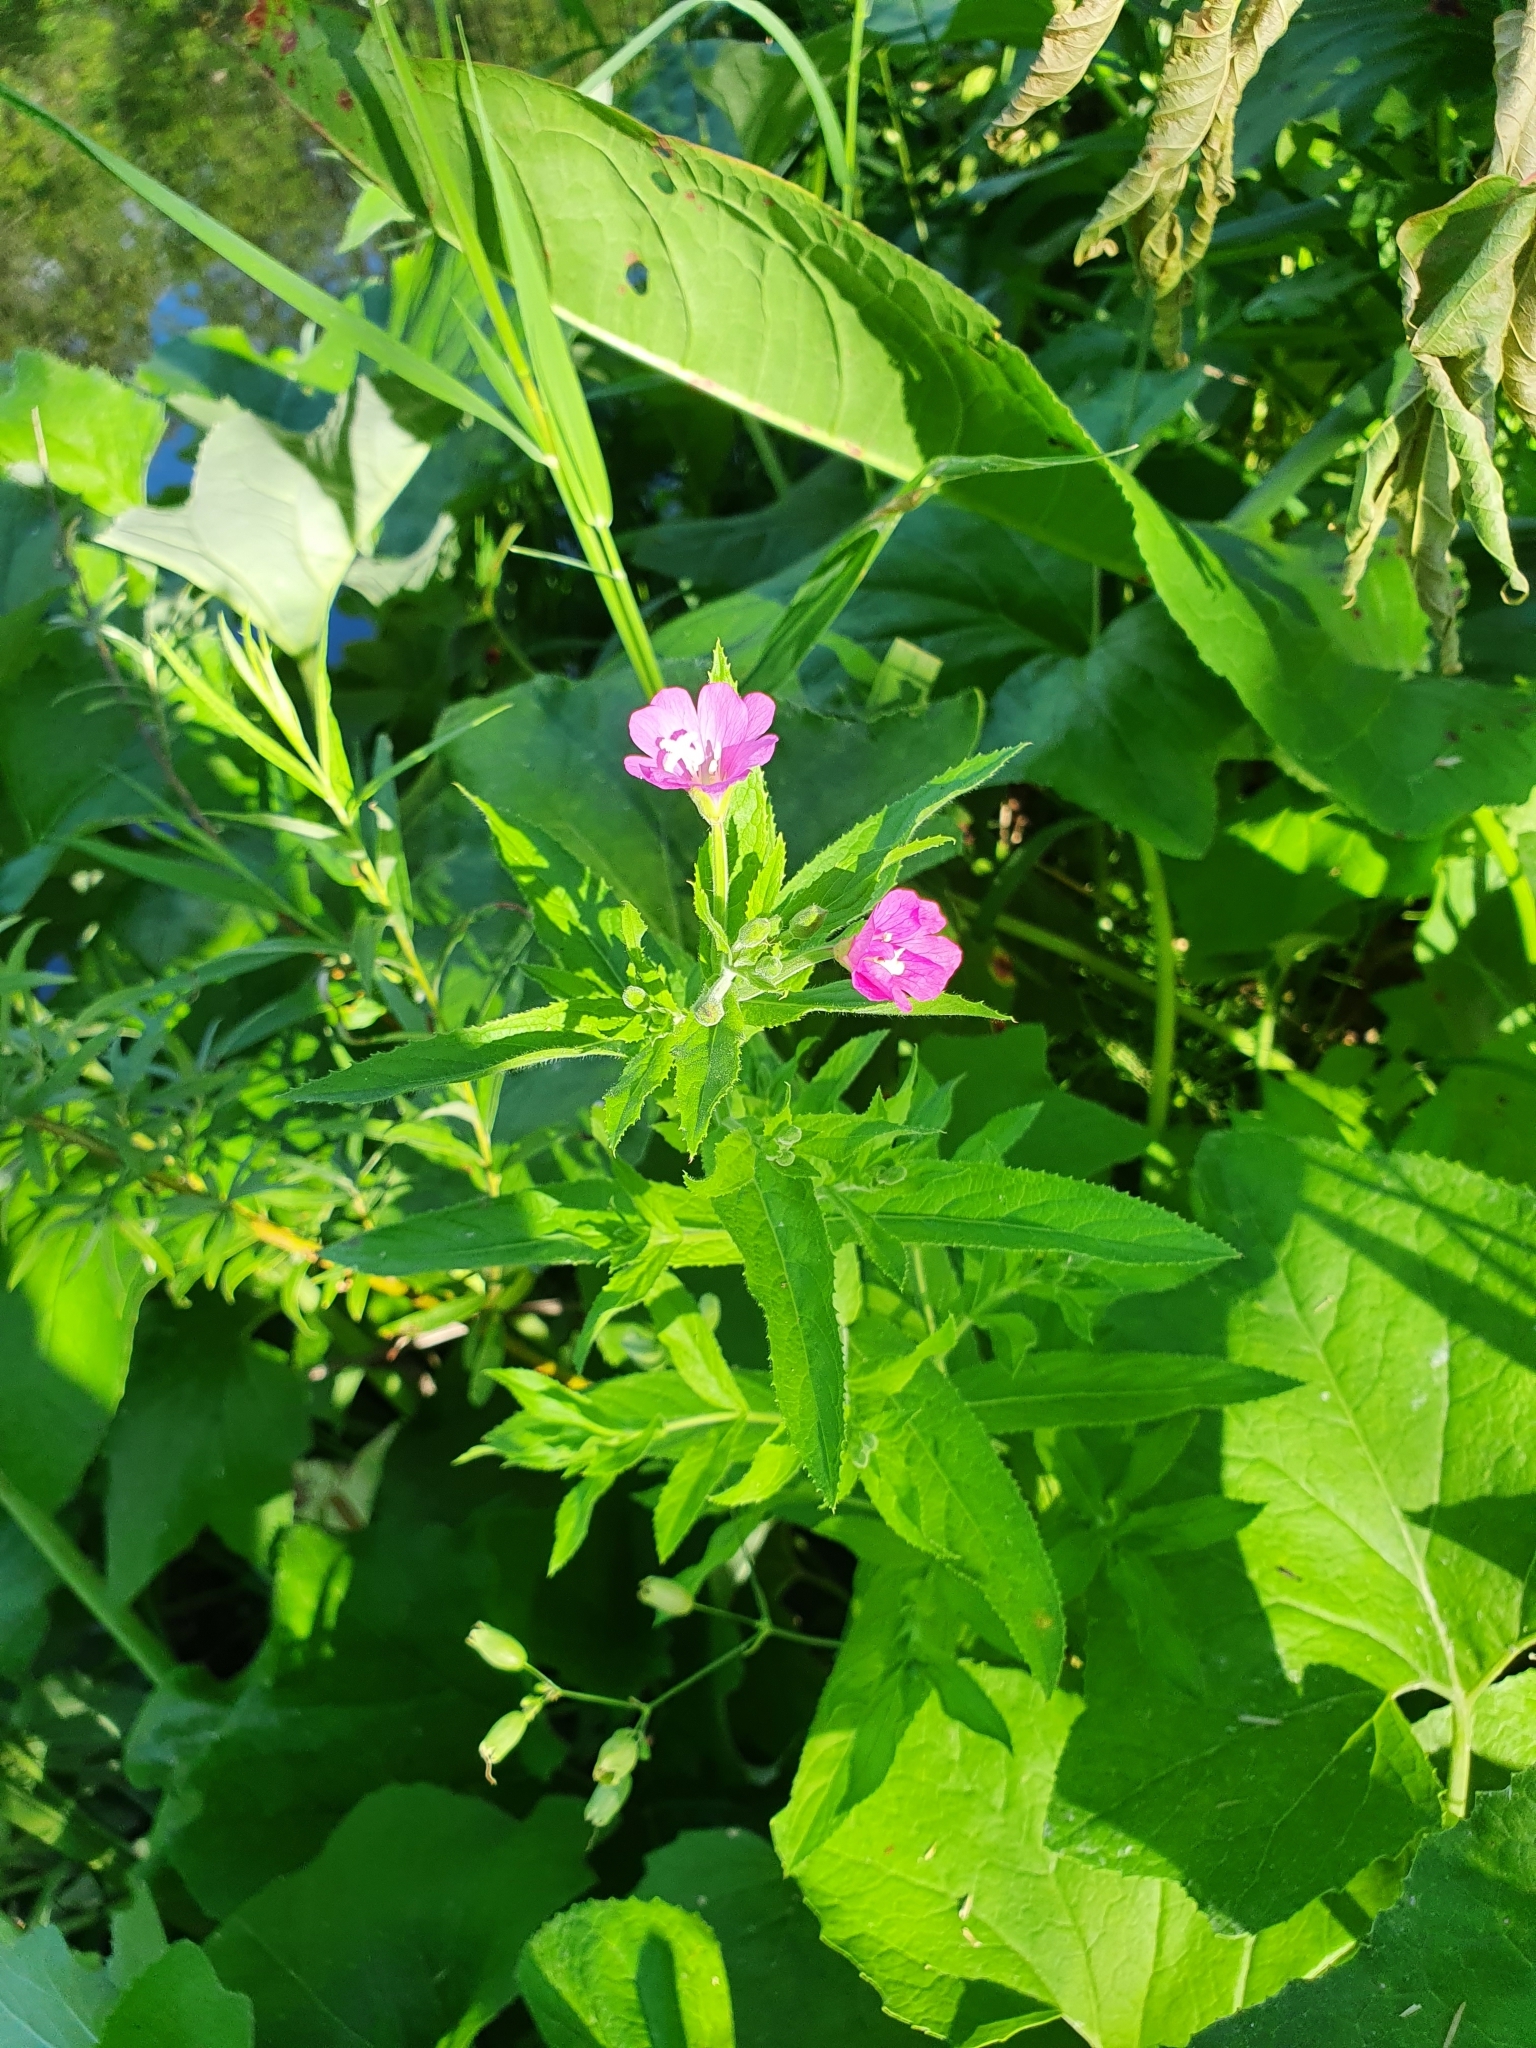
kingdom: Plantae
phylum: Tracheophyta
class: Magnoliopsida
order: Myrtales
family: Onagraceae
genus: Epilobium
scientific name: Epilobium hirsutum
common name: Great willowherb
